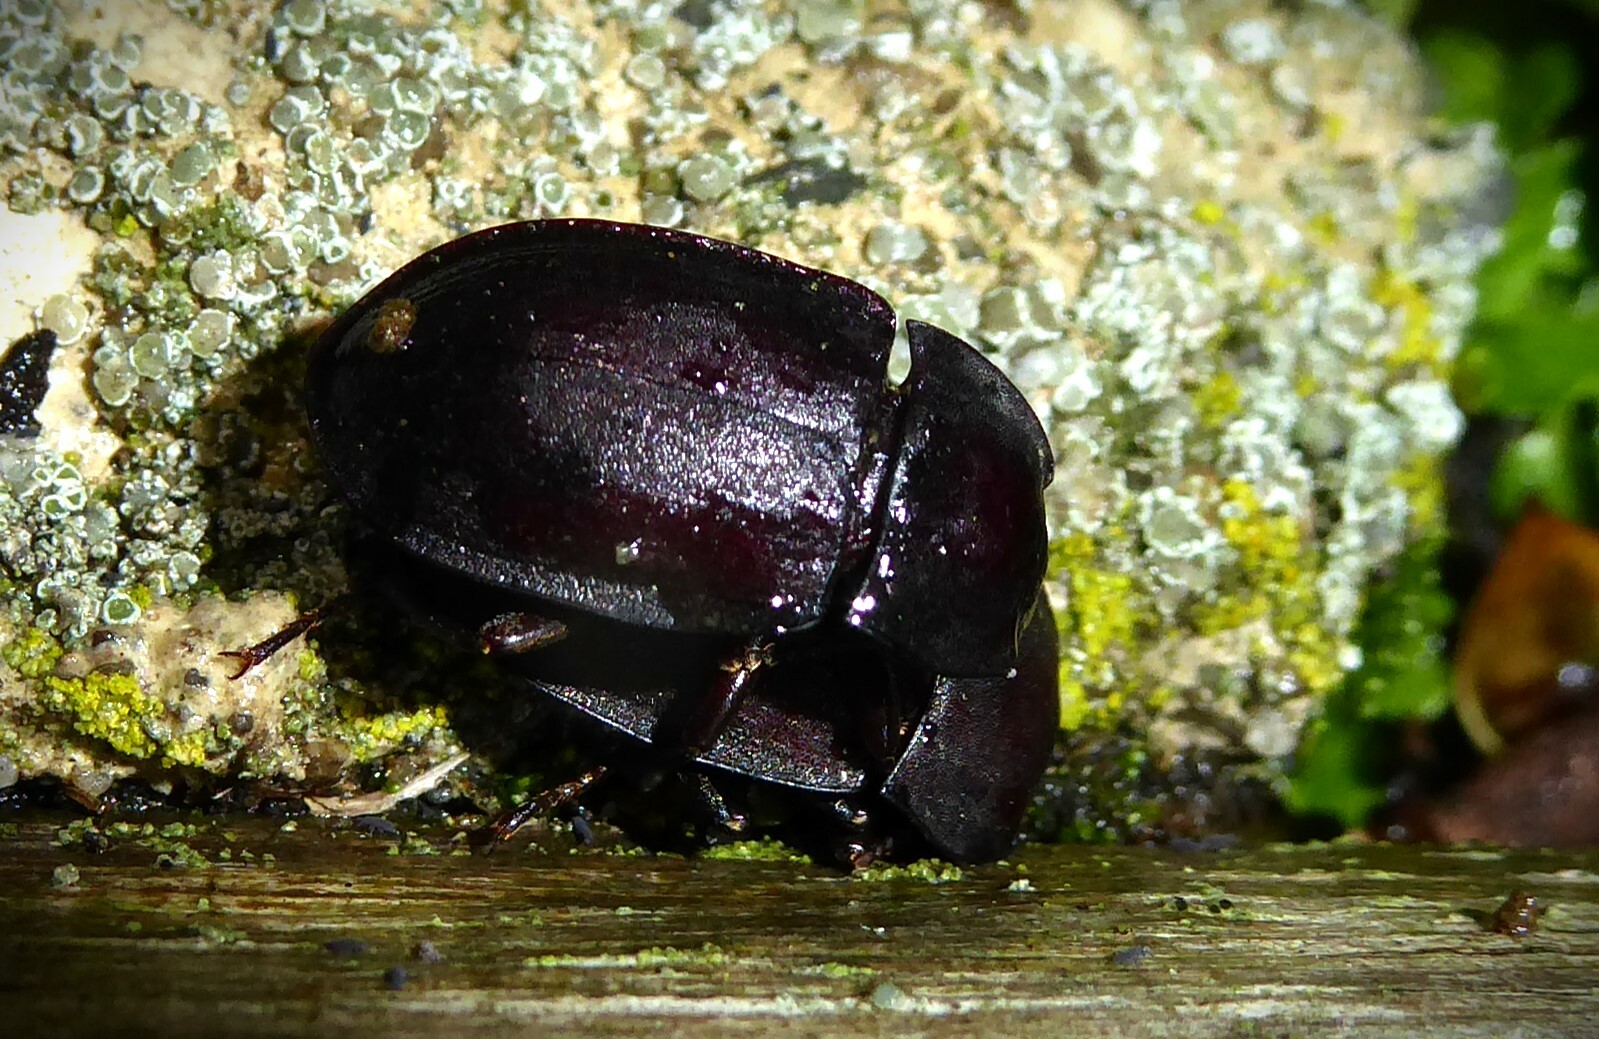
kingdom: Animalia
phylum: Arthropoda
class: Insecta
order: Coleoptera
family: Tenebrionidae
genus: Mimopeus
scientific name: Mimopeus
